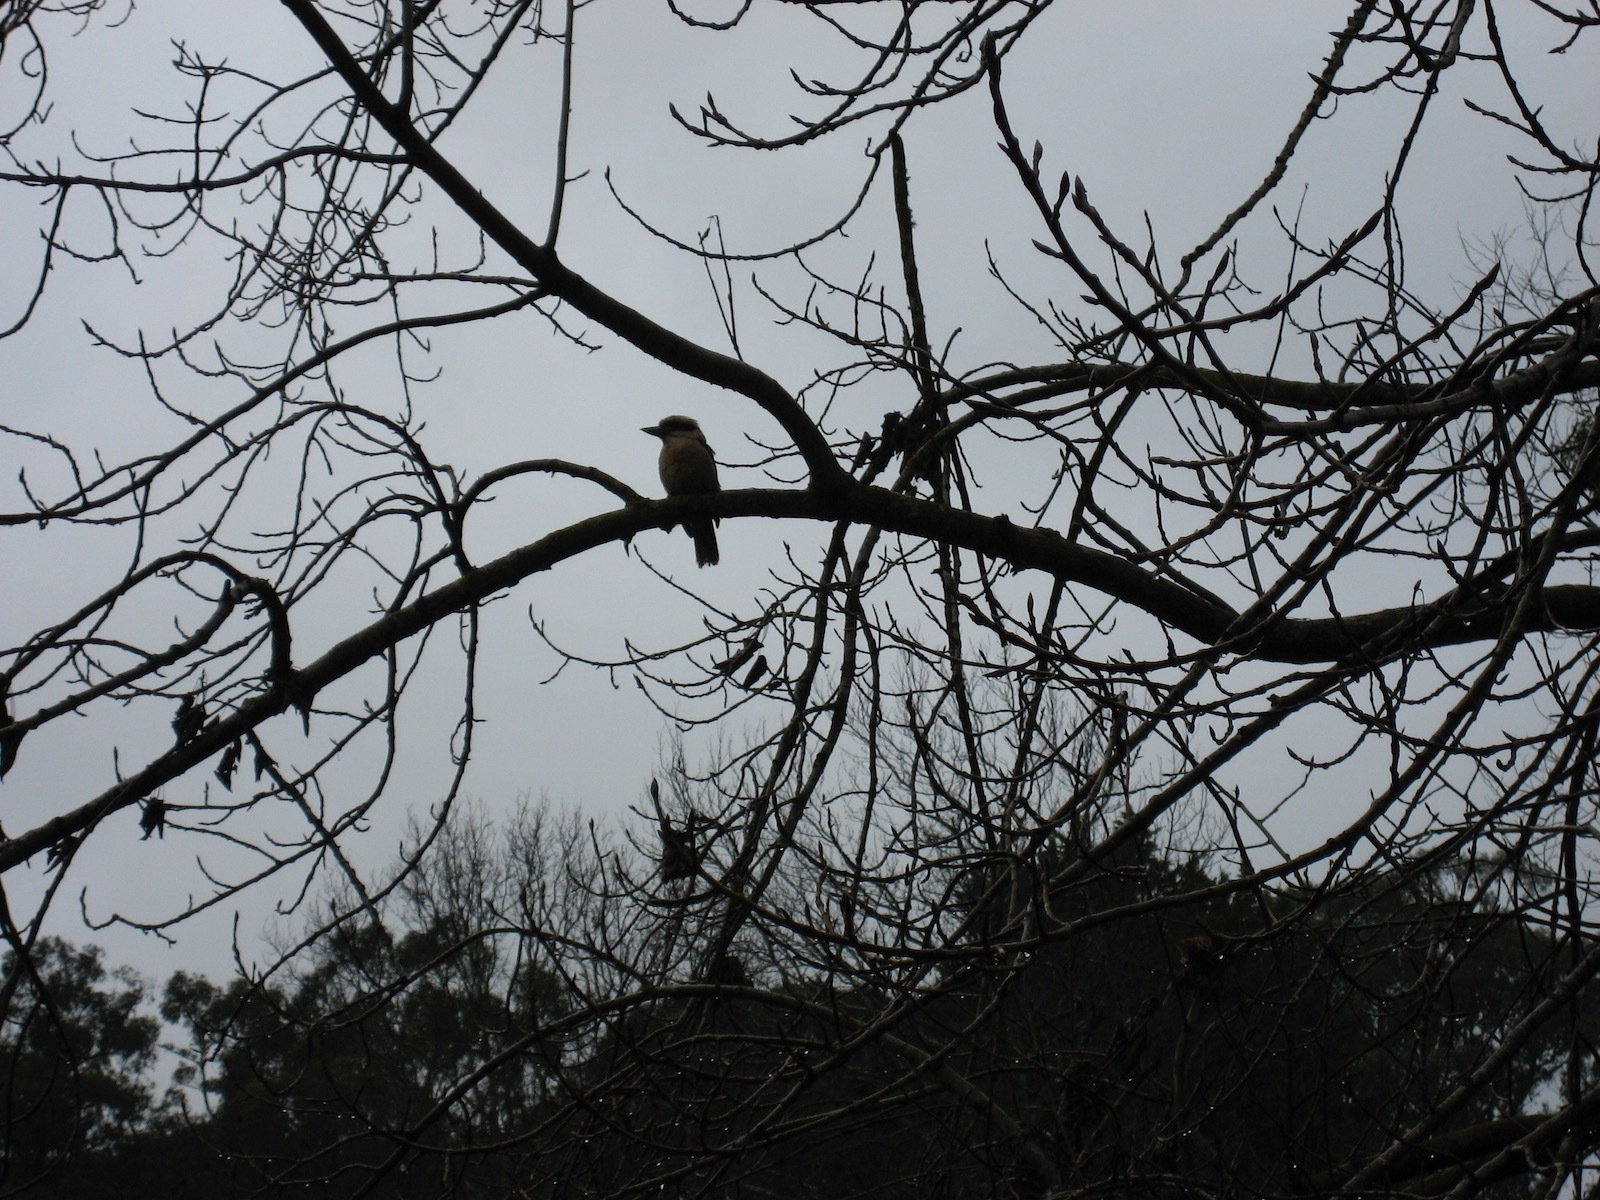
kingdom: Animalia
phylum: Chordata
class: Aves
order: Coraciiformes
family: Alcedinidae
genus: Dacelo
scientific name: Dacelo novaeguineae
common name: Laughing kookaburra
